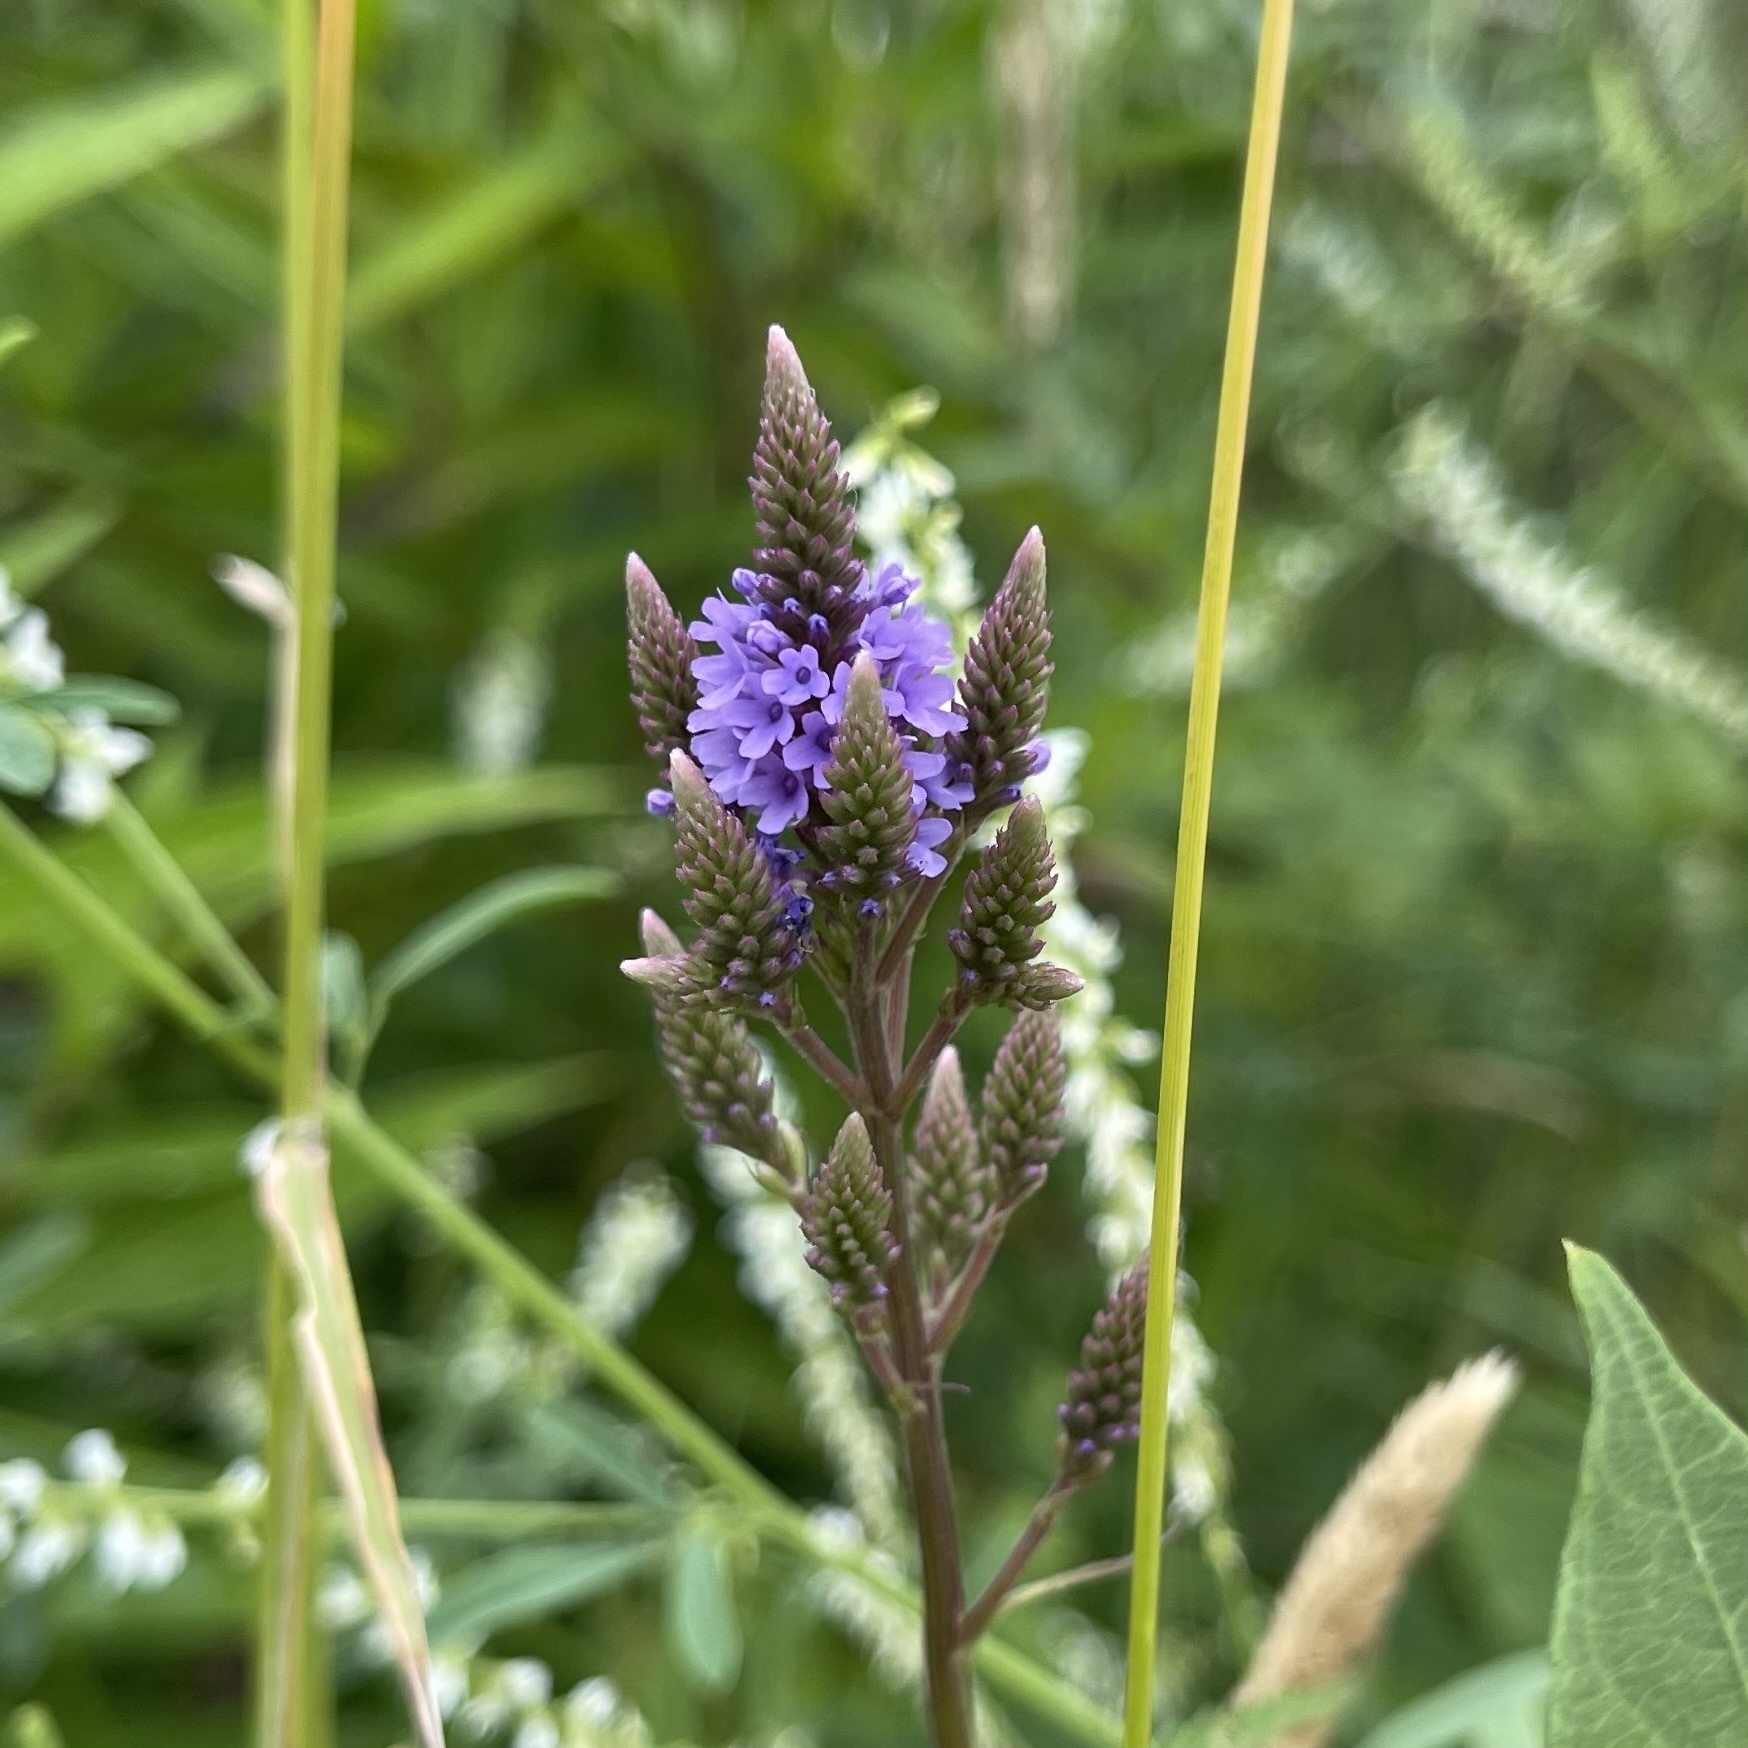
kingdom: Plantae
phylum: Tracheophyta
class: Magnoliopsida
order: Lamiales
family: Verbenaceae
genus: Verbena
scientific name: Verbena hastata
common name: American blue vervain
